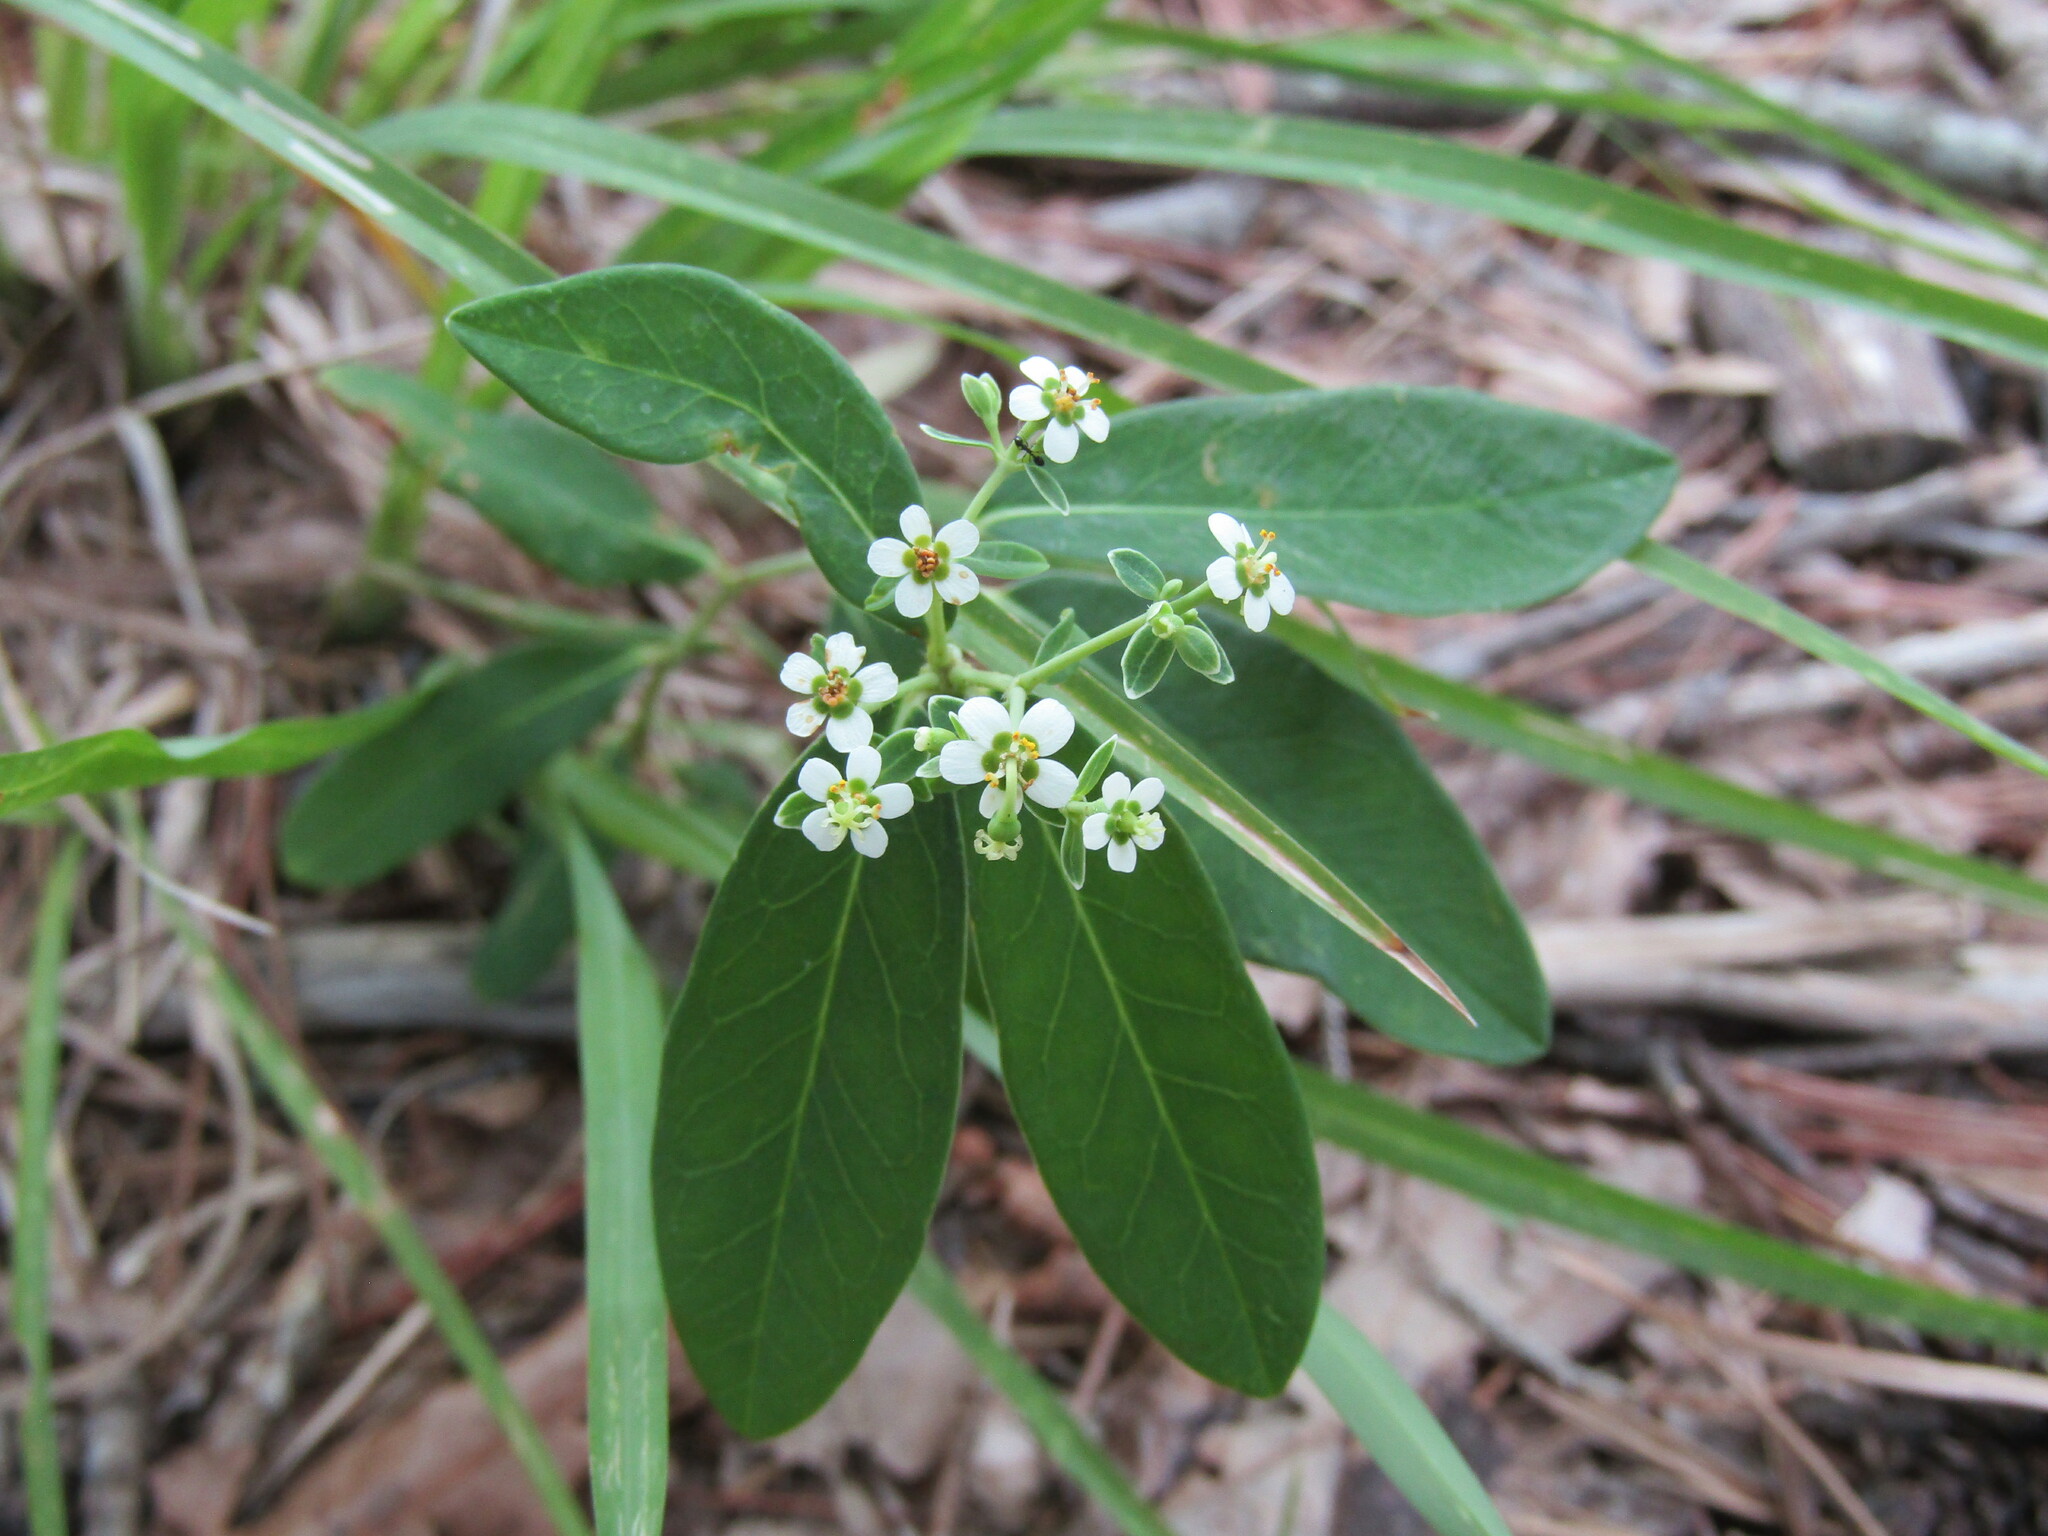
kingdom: Plantae
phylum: Tracheophyta
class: Magnoliopsida
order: Malpighiales
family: Euphorbiaceae
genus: Euphorbia
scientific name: Euphorbia corollata
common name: Flowering spurge
